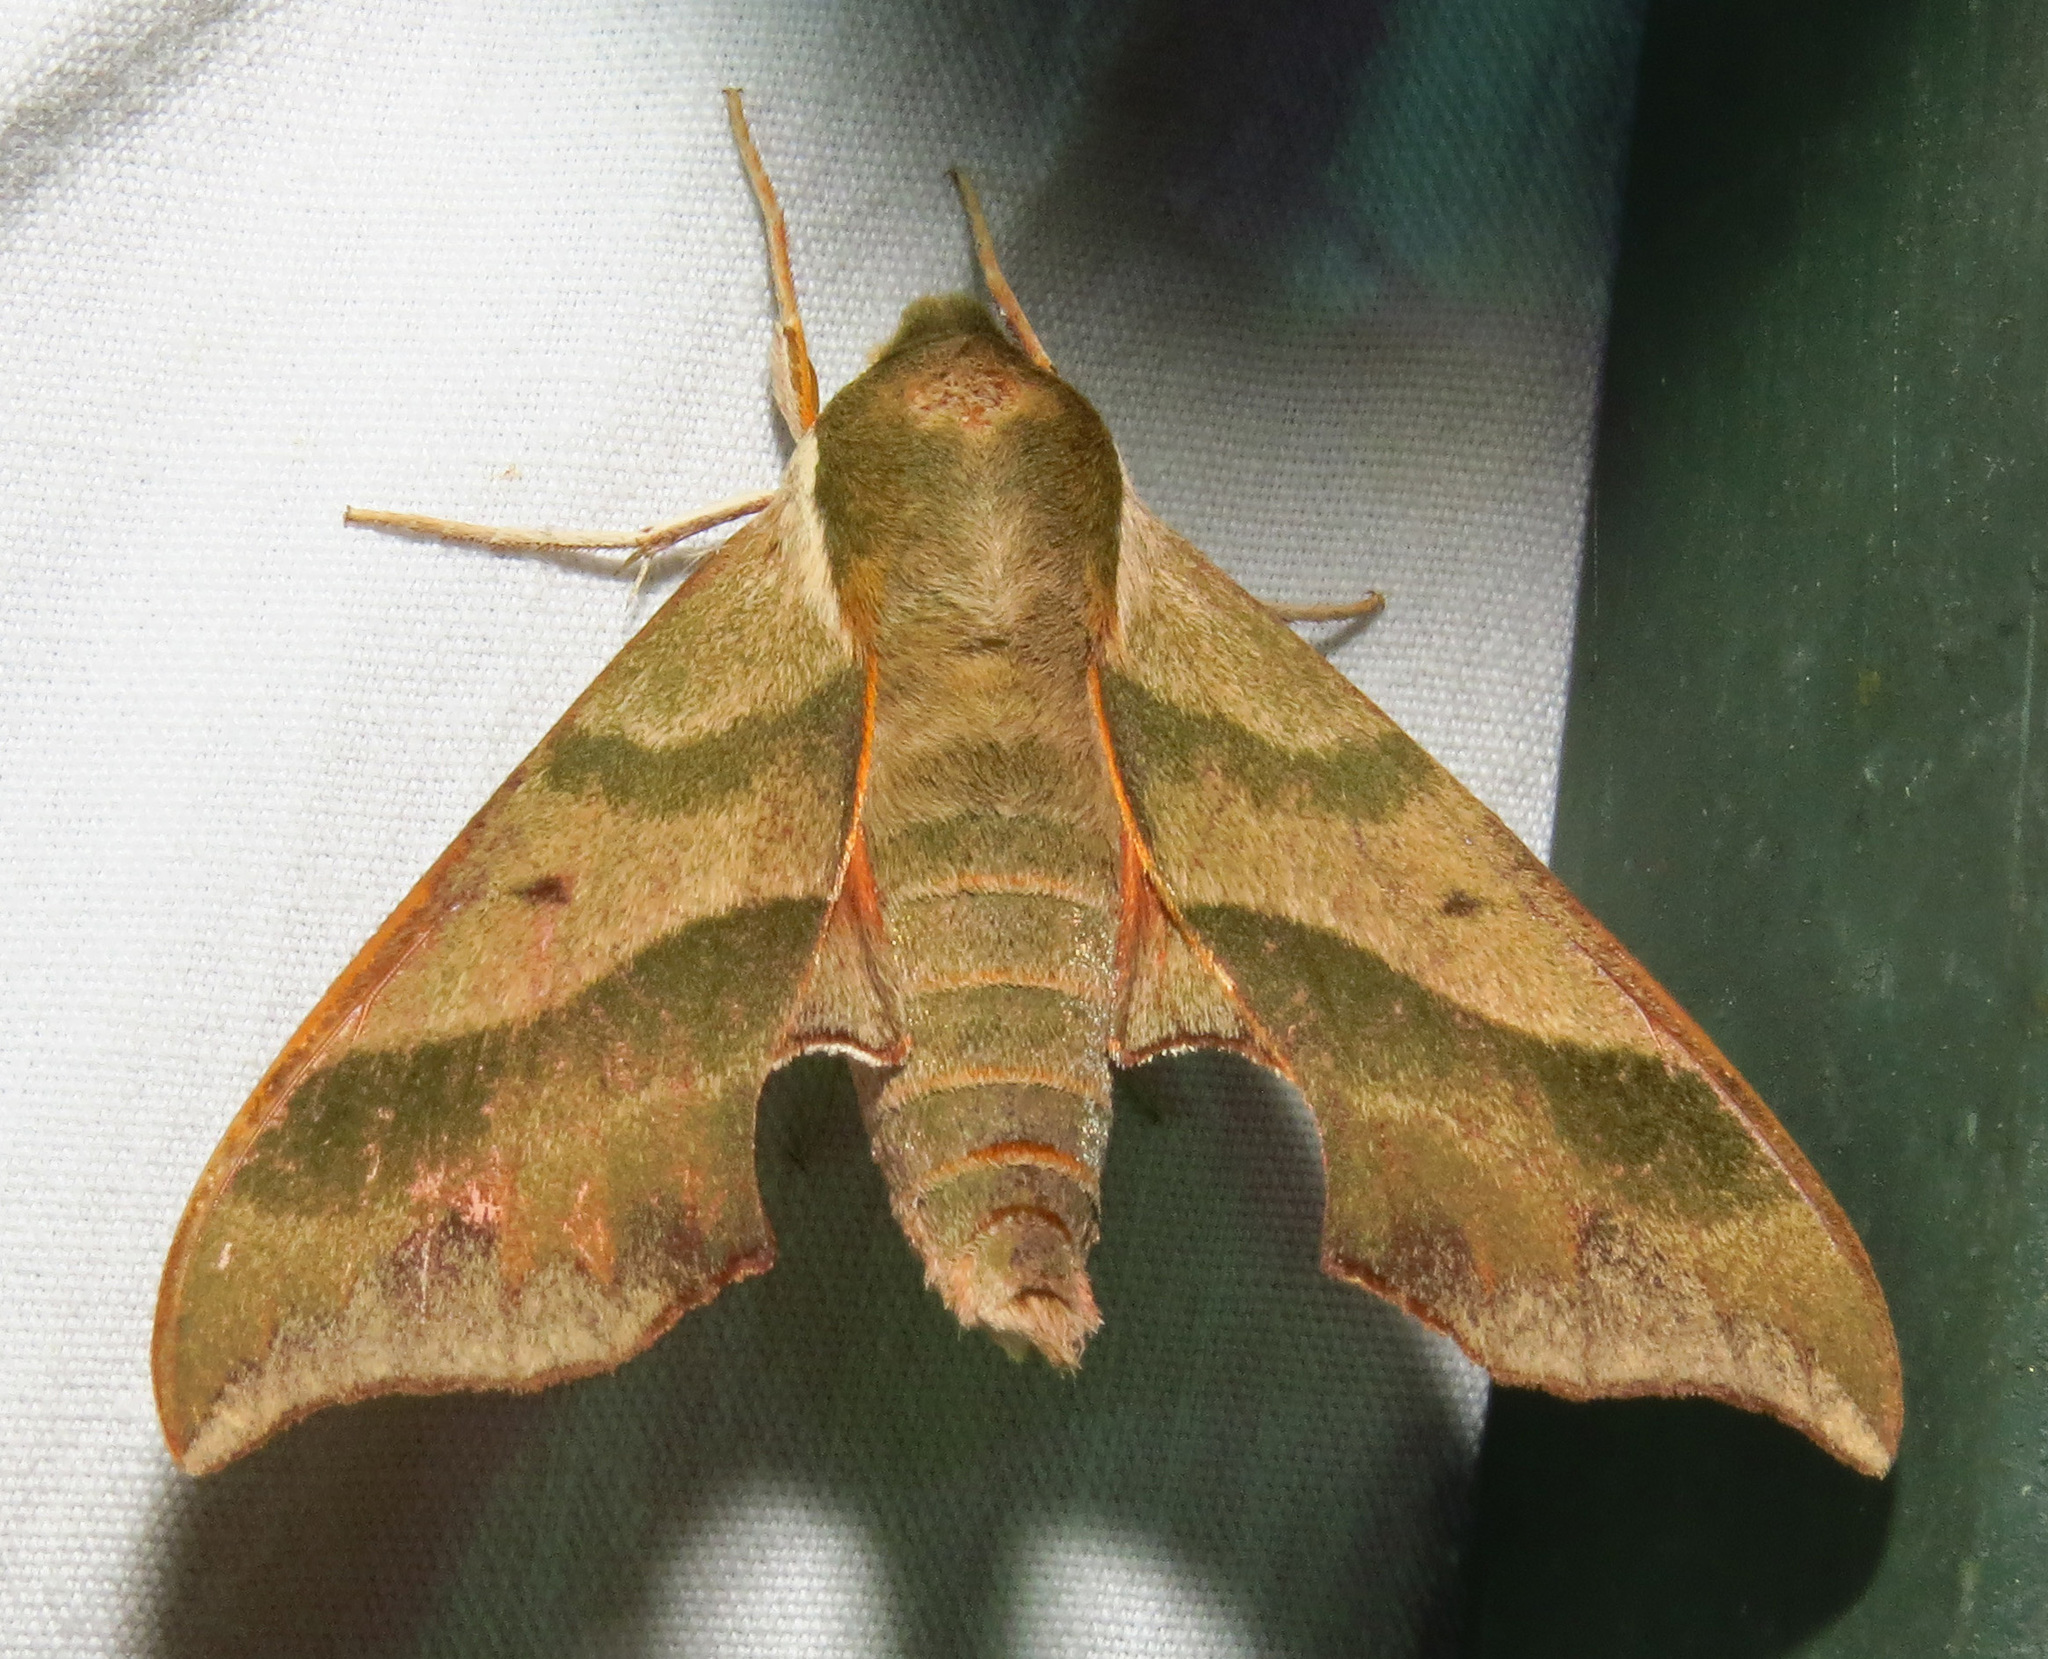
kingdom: Animalia
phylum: Arthropoda
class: Insecta
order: Lepidoptera
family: Sphingidae
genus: Darapsa
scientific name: Darapsa myron
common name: Hog sphinx
